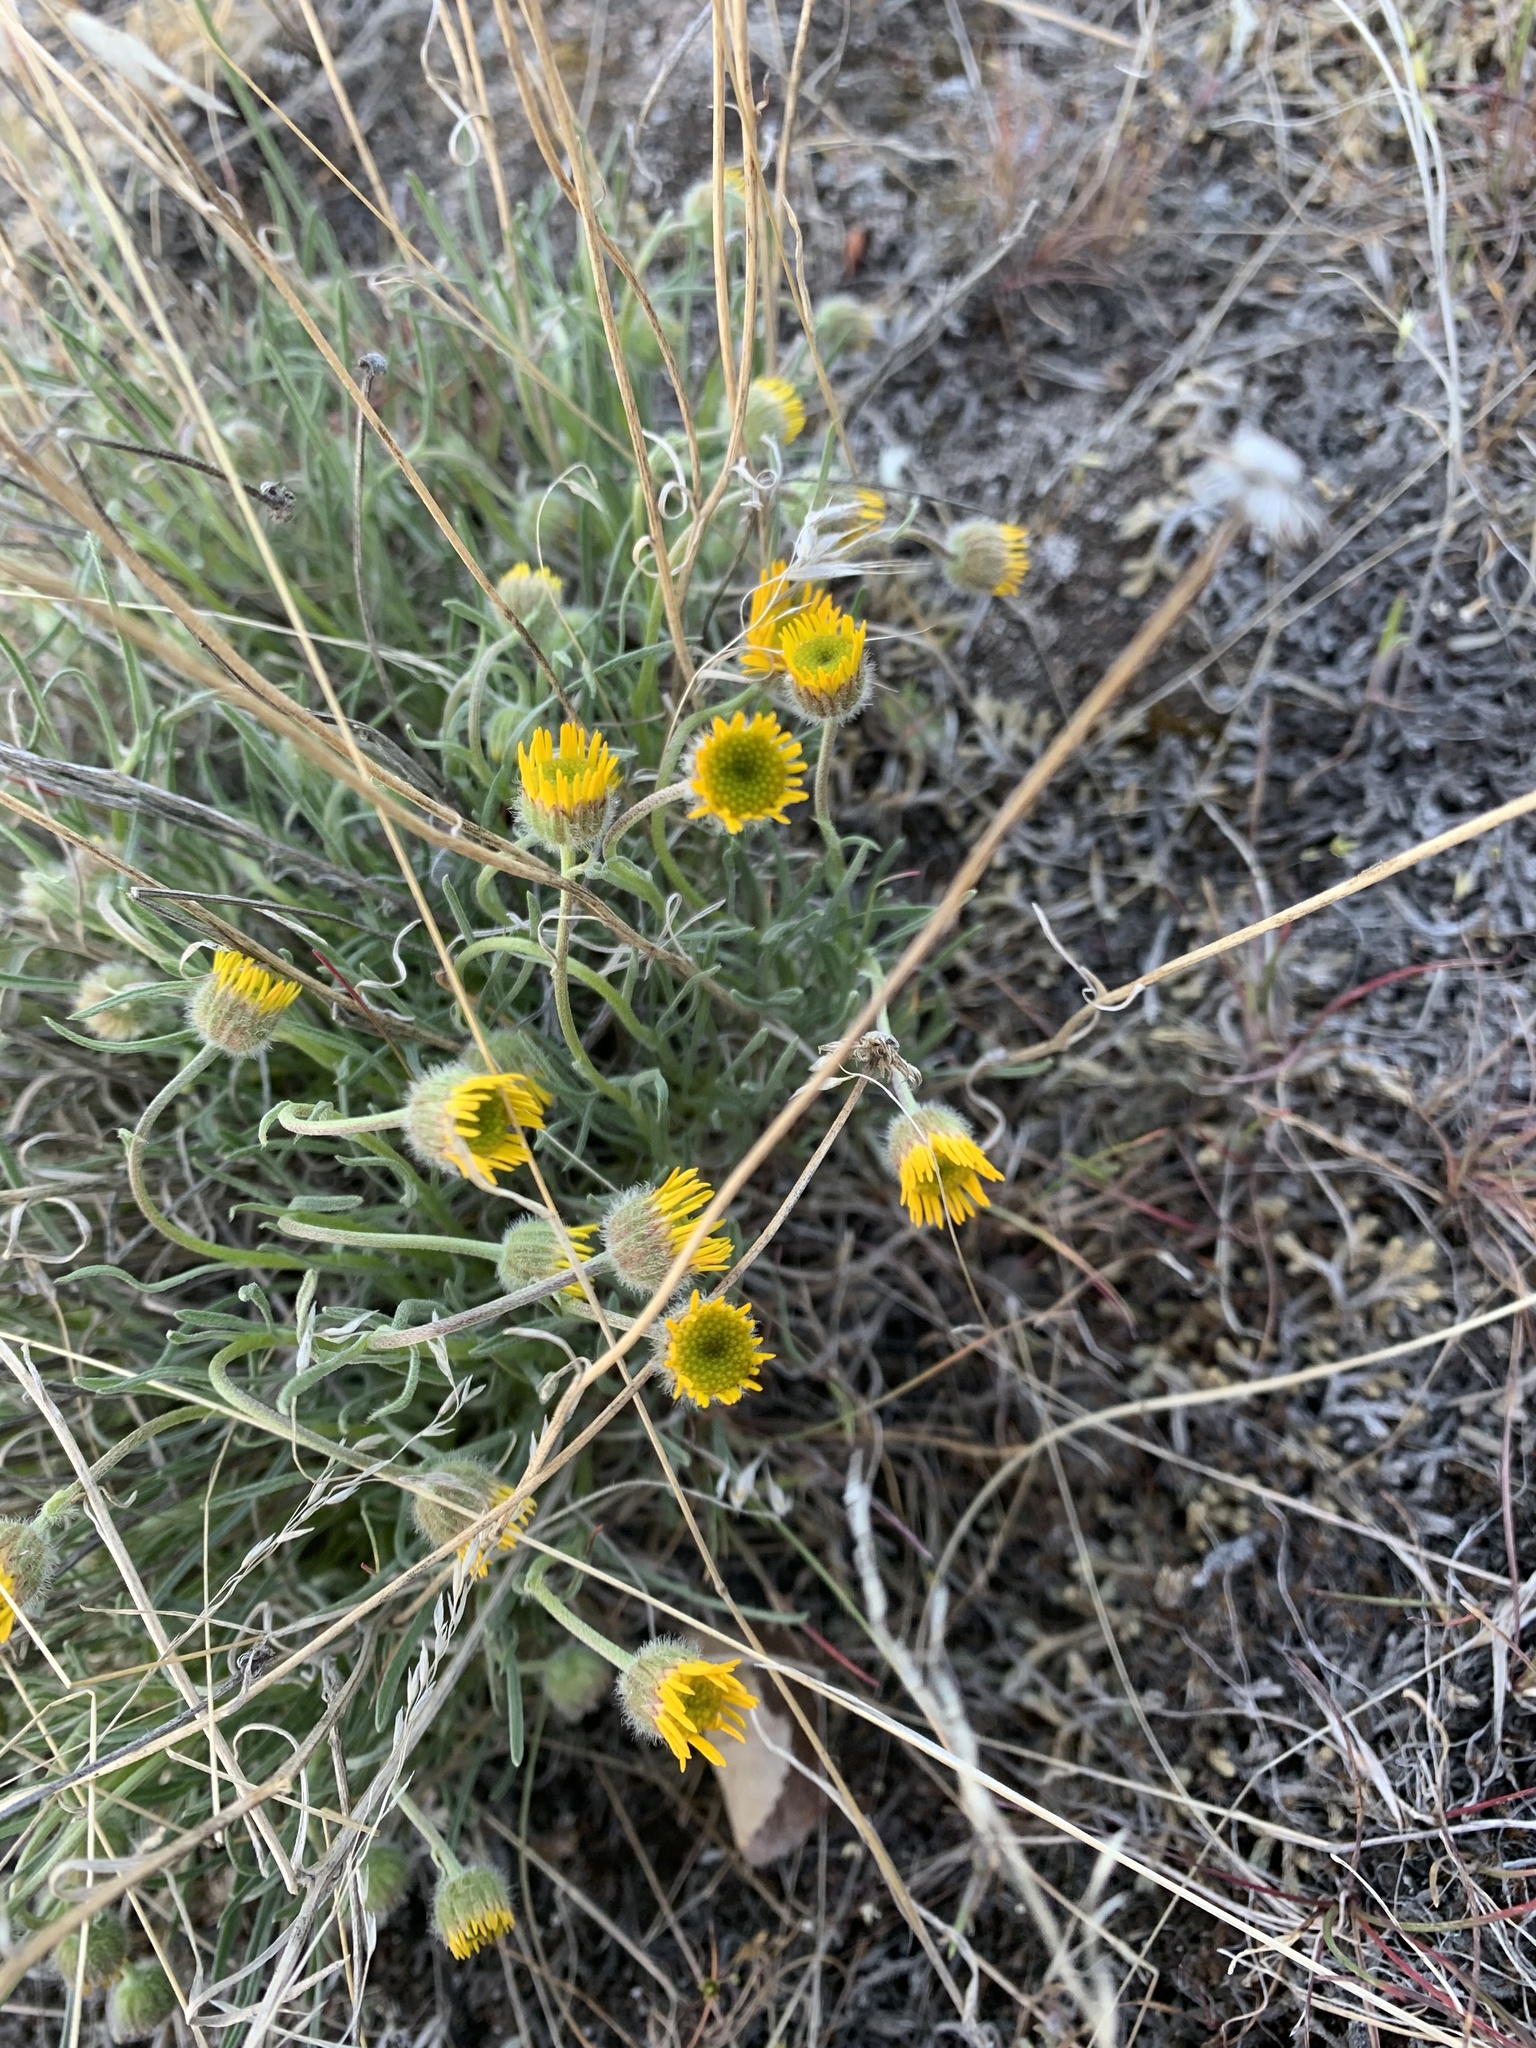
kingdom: Plantae
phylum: Tracheophyta
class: Magnoliopsida
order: Asterales
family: Asteraceae
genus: Erigeron
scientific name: Erigeron linearis
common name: Desert yellow fleabane
